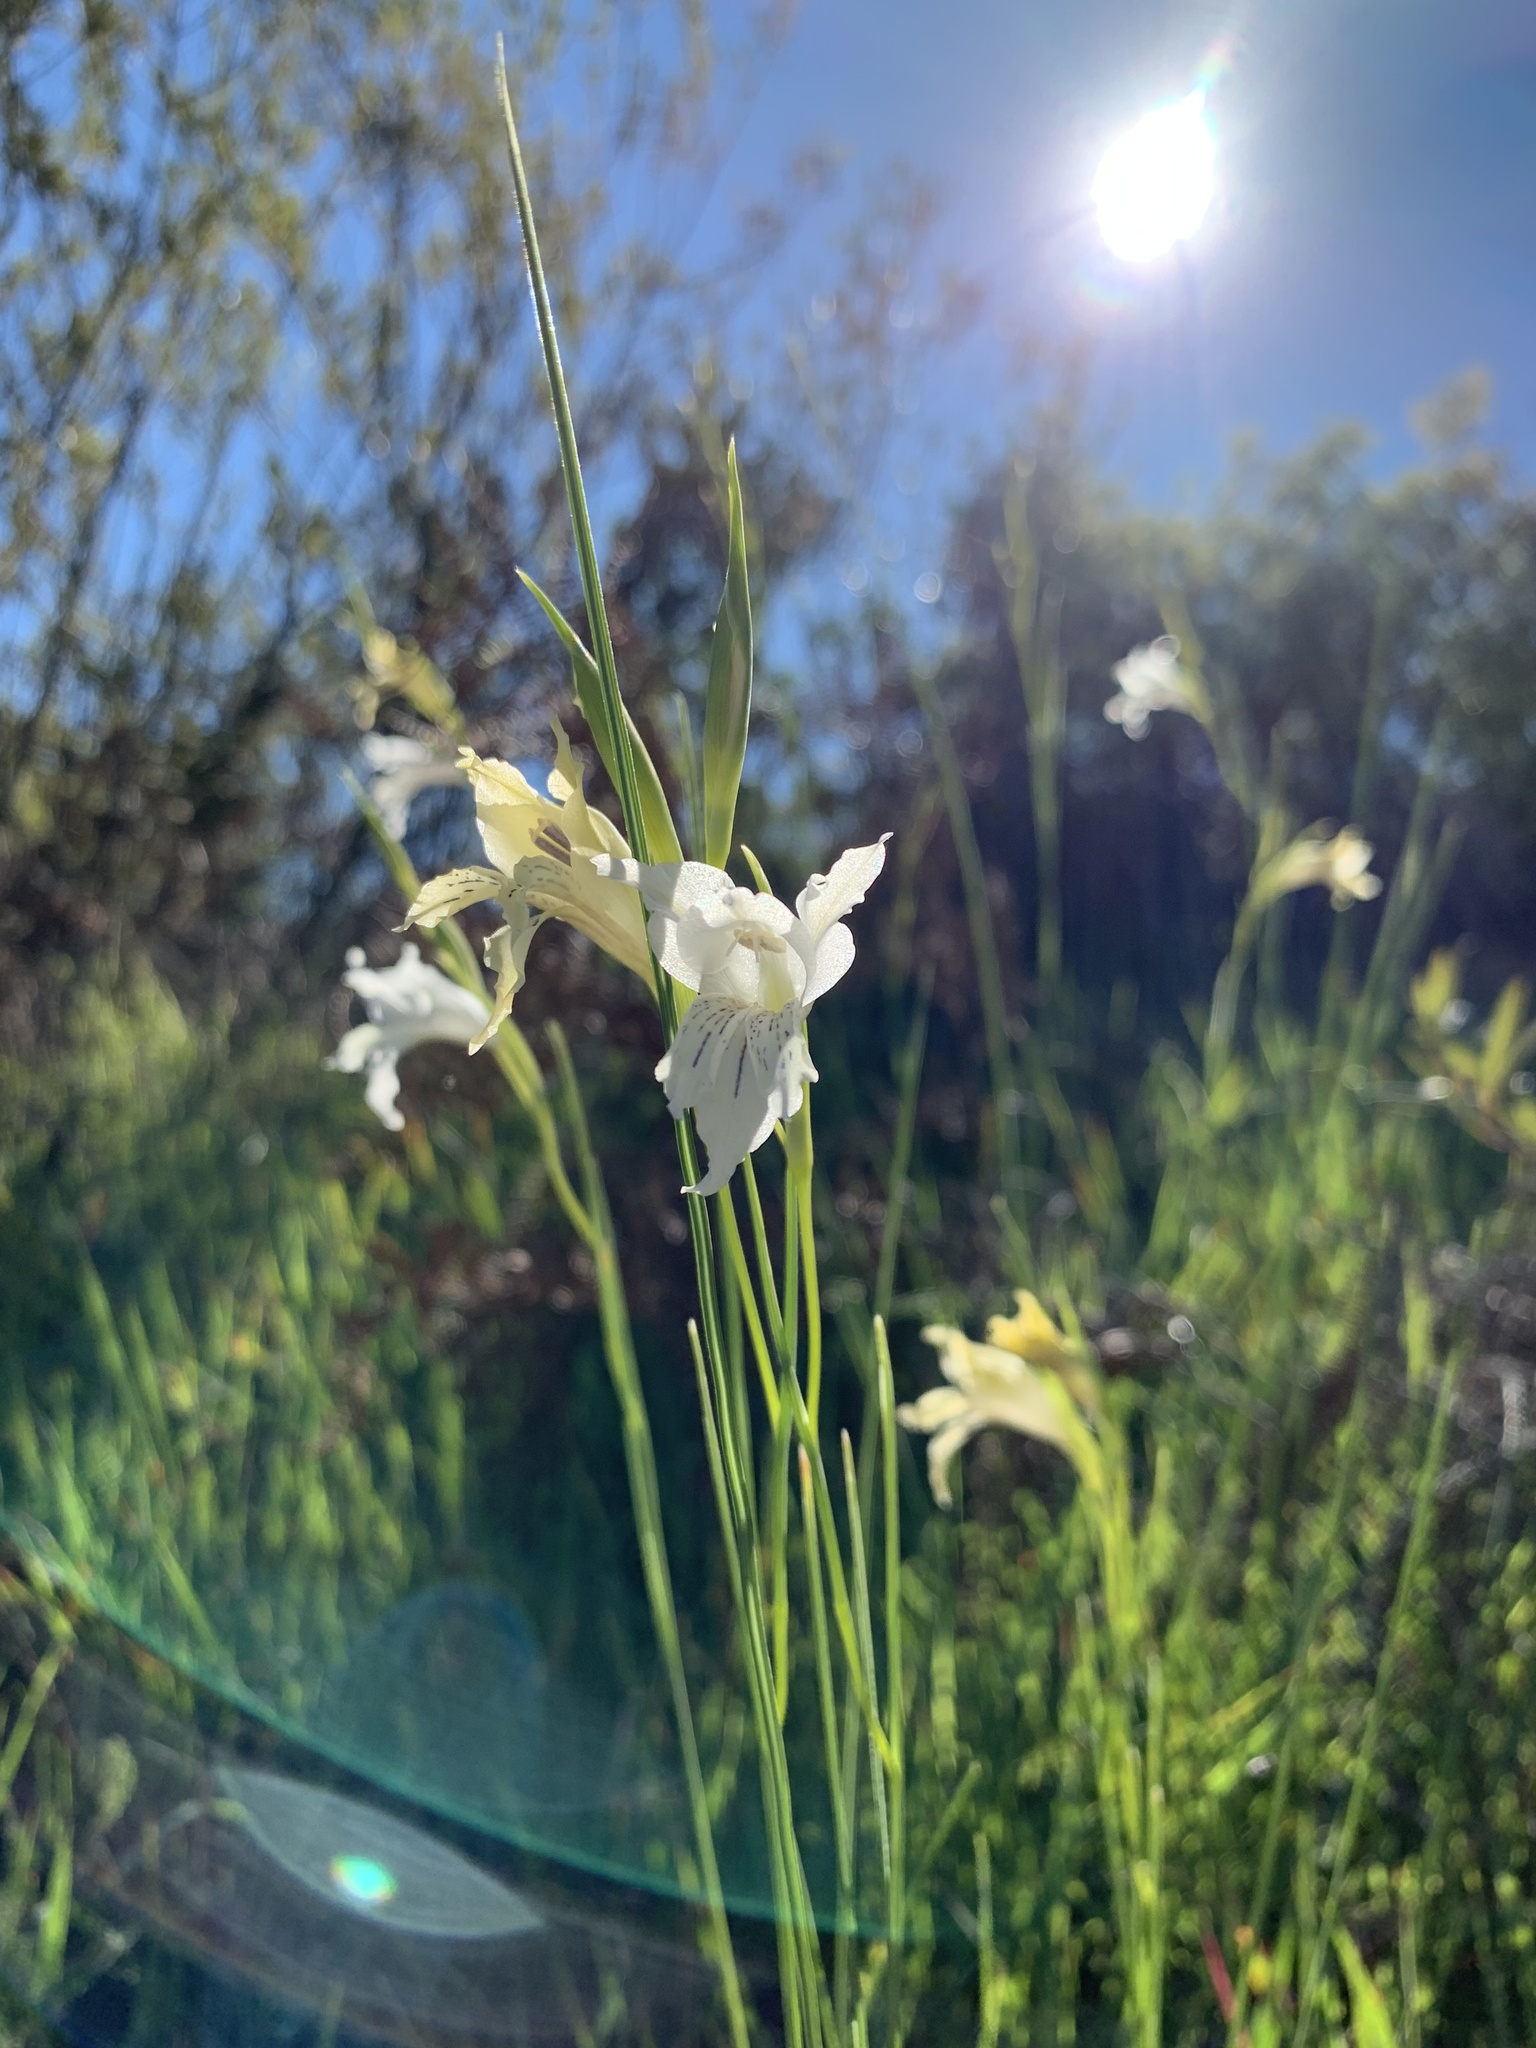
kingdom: Plantae
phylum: Tracheophyta
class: Liliopsida
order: Asparagales
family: Iridaceae
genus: Gladiolus
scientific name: Gladiolus gracilis
